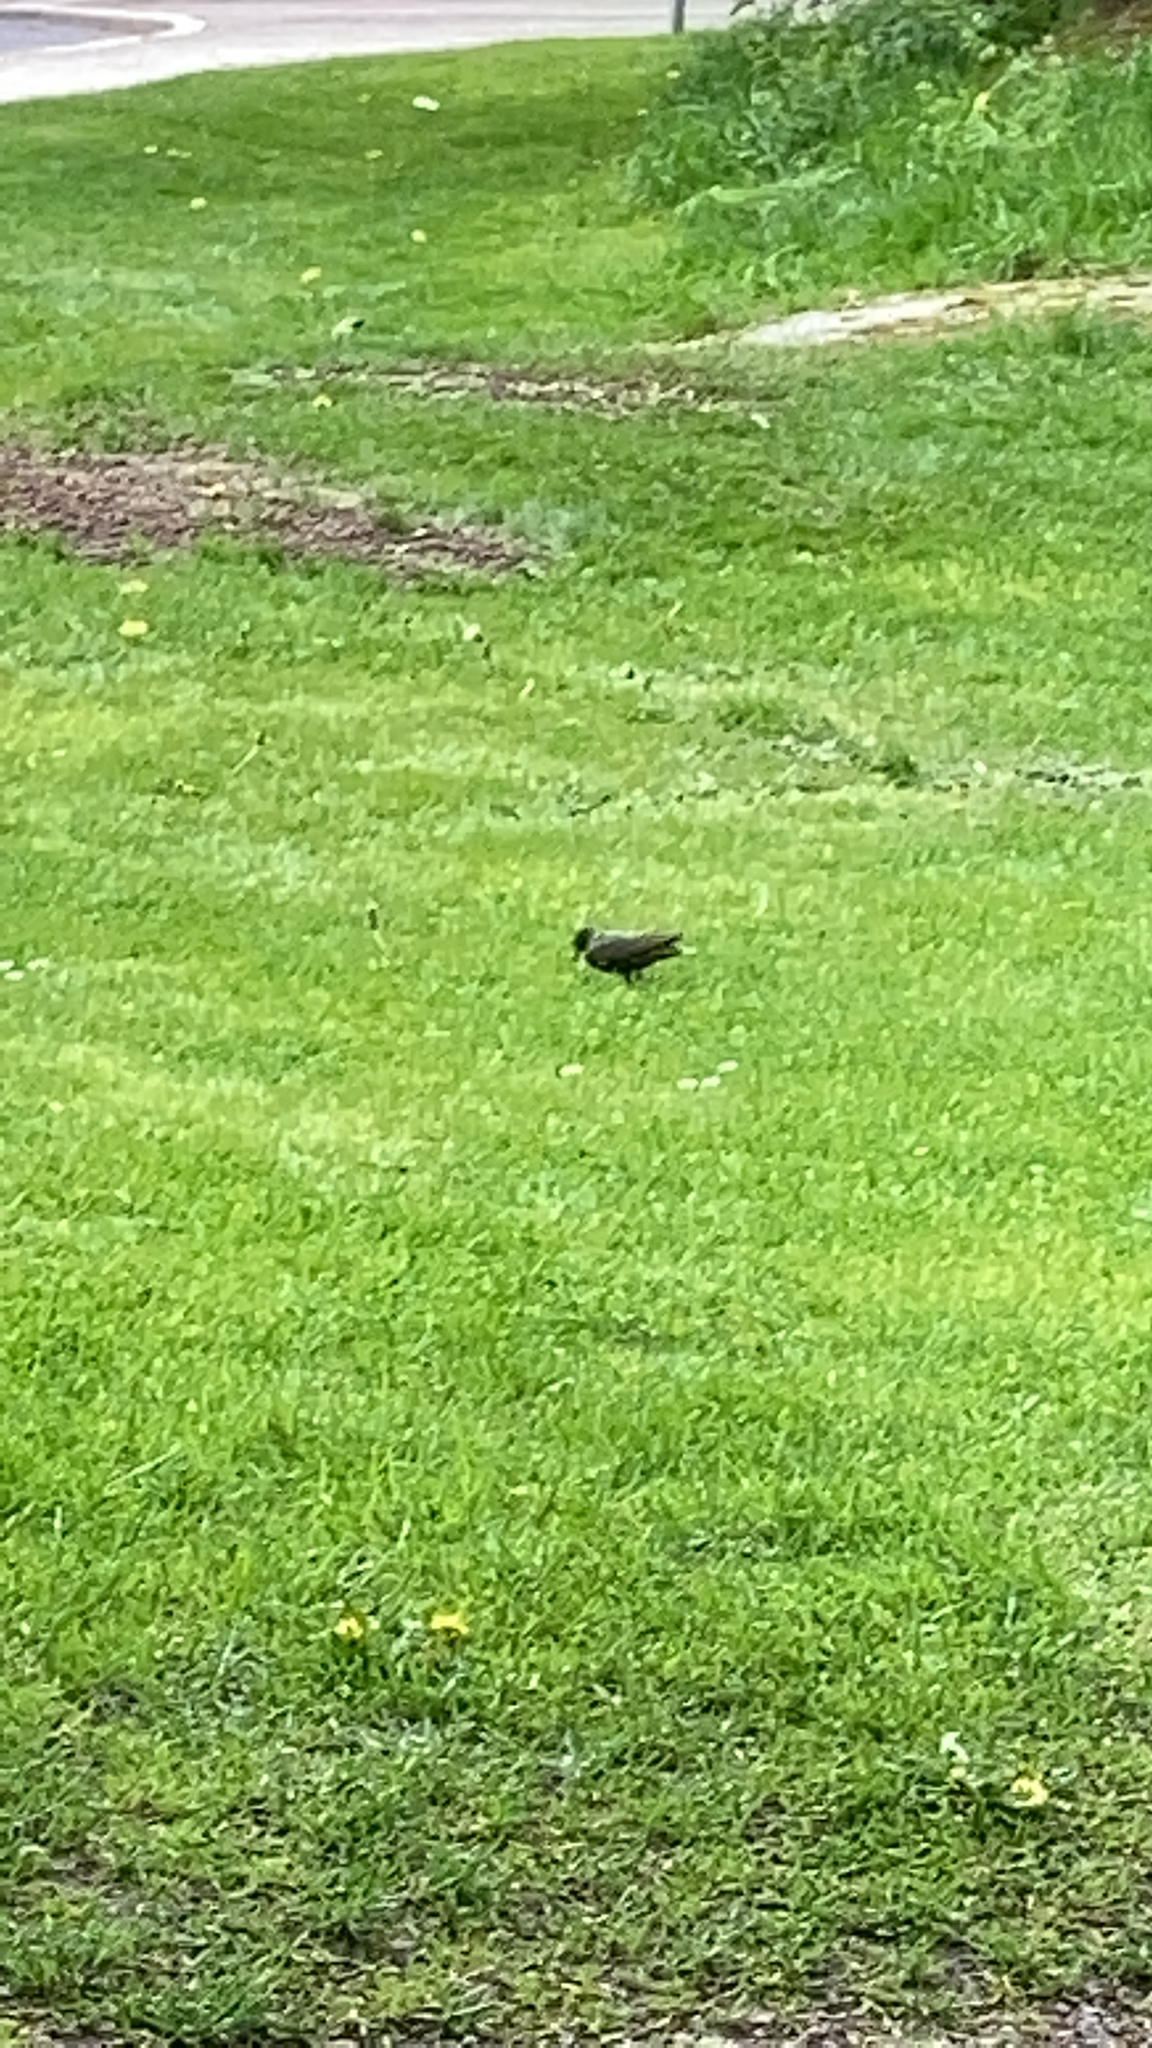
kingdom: Animalia
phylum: Chordata
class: Aves
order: Passeriformes
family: Sturnidae
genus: Sturnus
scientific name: Sturnus vulgaris
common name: Common starling
